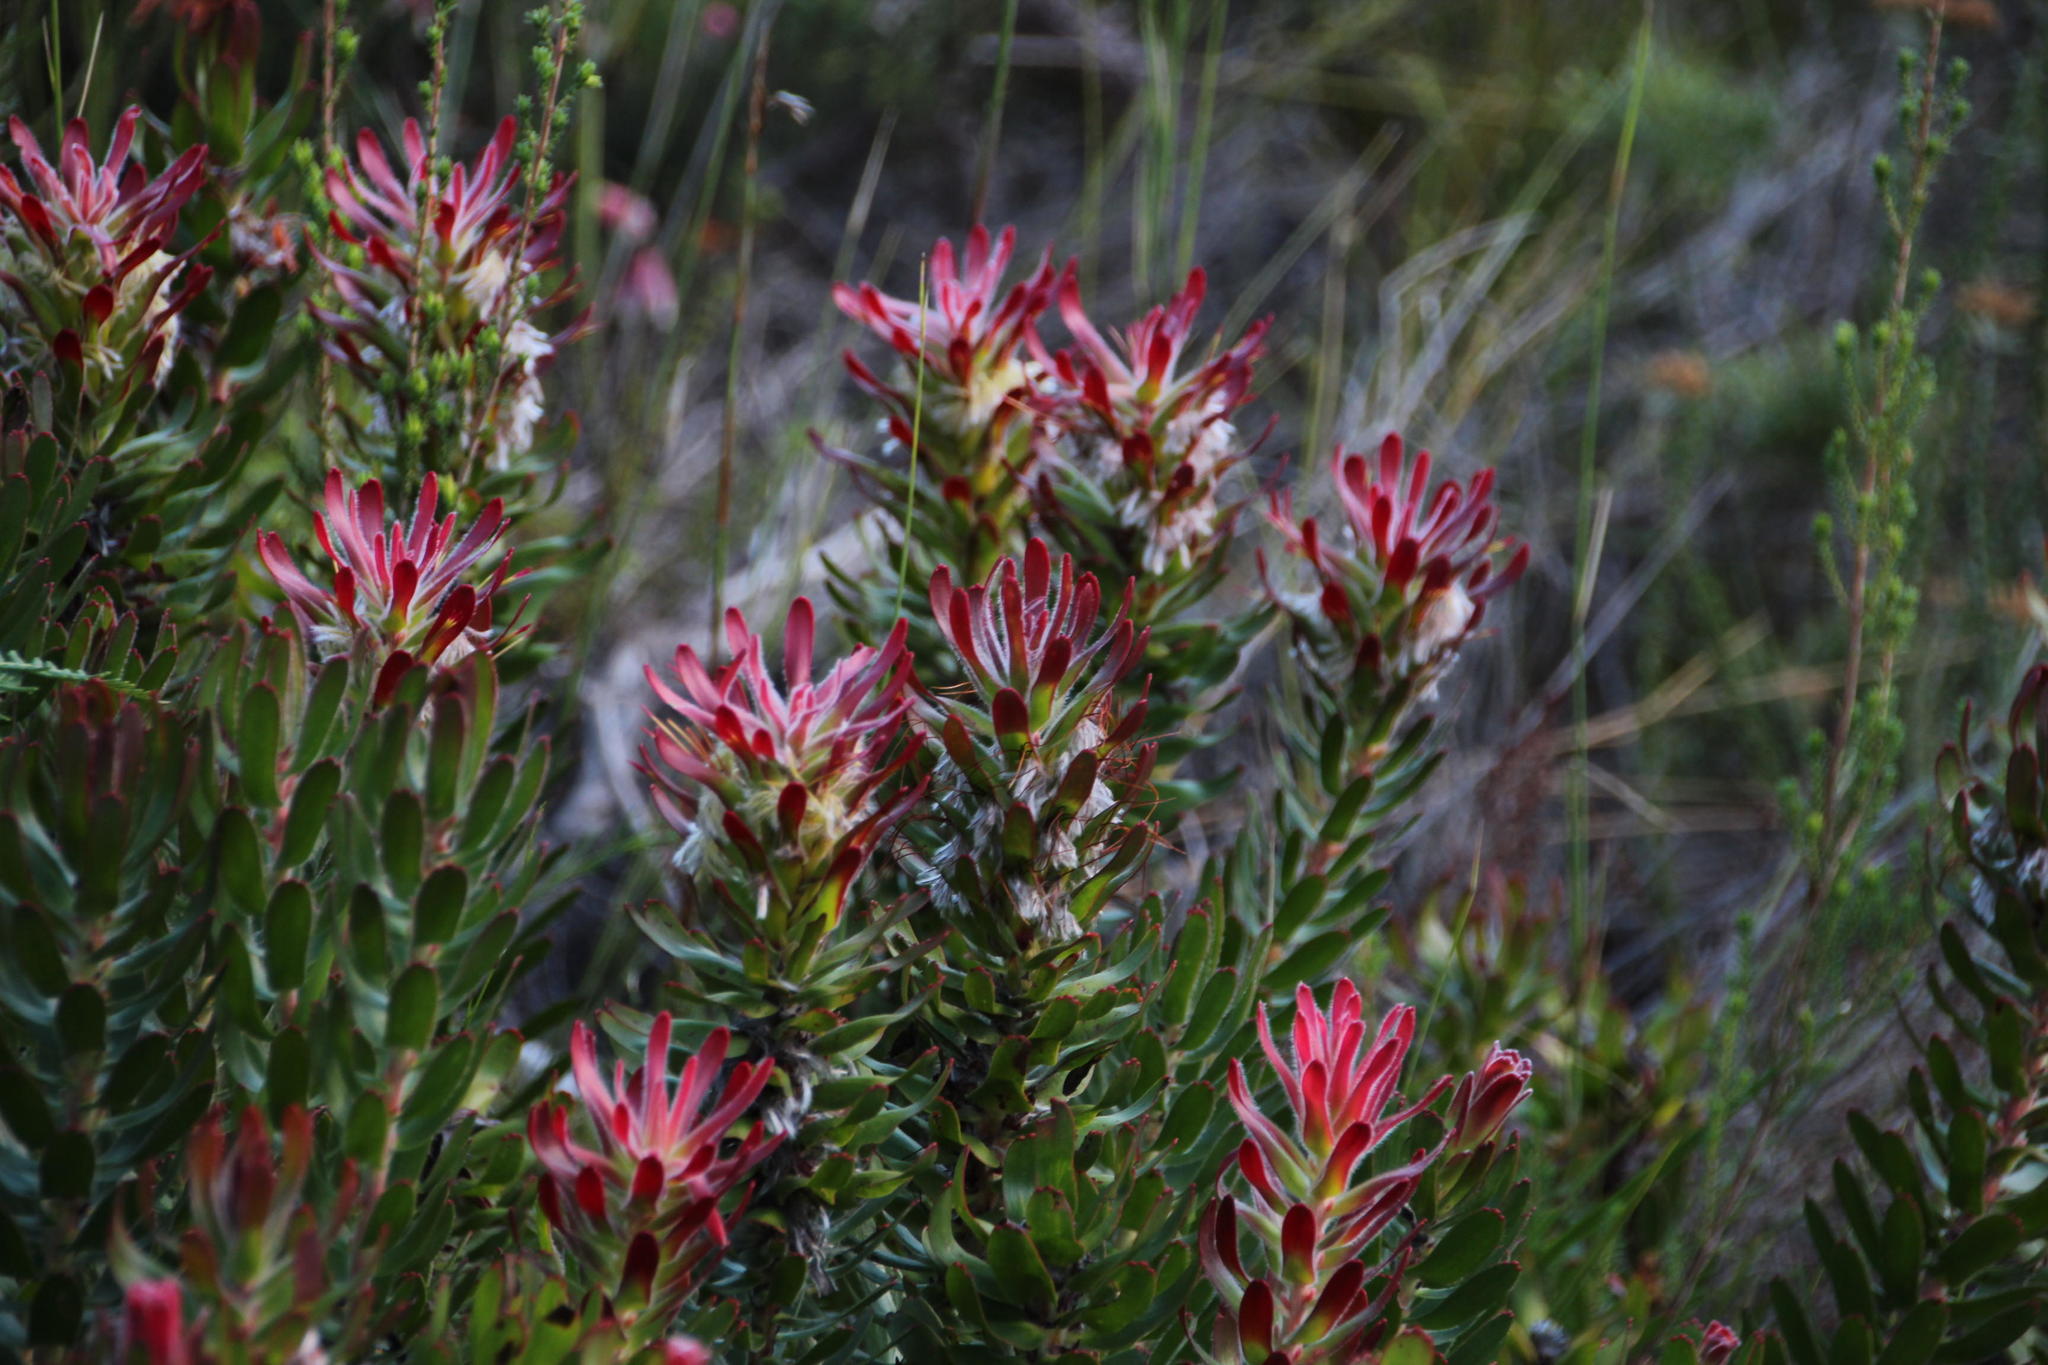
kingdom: Plantae
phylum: Tracheophyta
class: Magnoliopsida
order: Proteales
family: Proteaceae
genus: Mimetes
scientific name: Mimetes cucullatus
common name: Common pagoda
